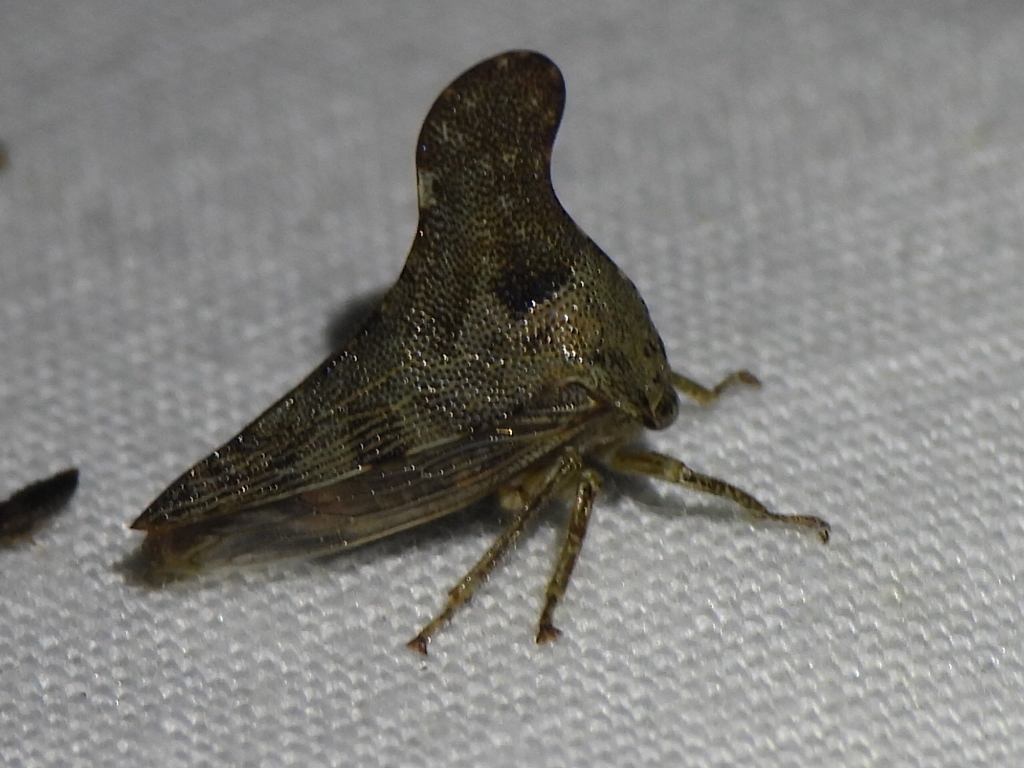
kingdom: Animalia
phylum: Arthropoda
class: Insecta
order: Hemiptera
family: Membracidae
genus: Glossonotus
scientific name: Glossonotus acuminata
